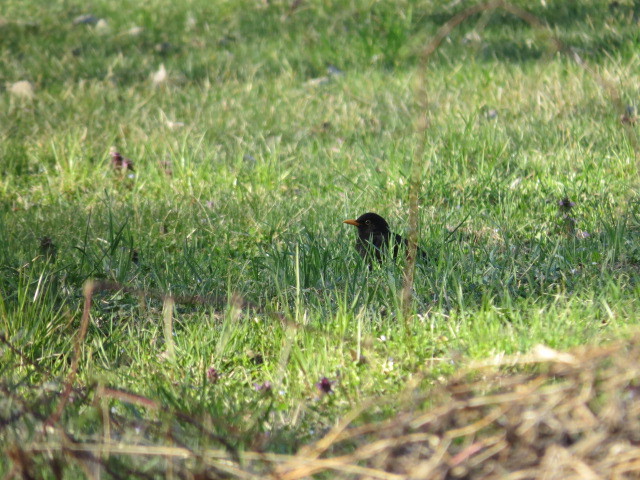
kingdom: Animalia
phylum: Chordata
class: Aves
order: Passeriformes
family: Turdidae
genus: Turdus
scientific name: Turdus merula
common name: Common blackbird
